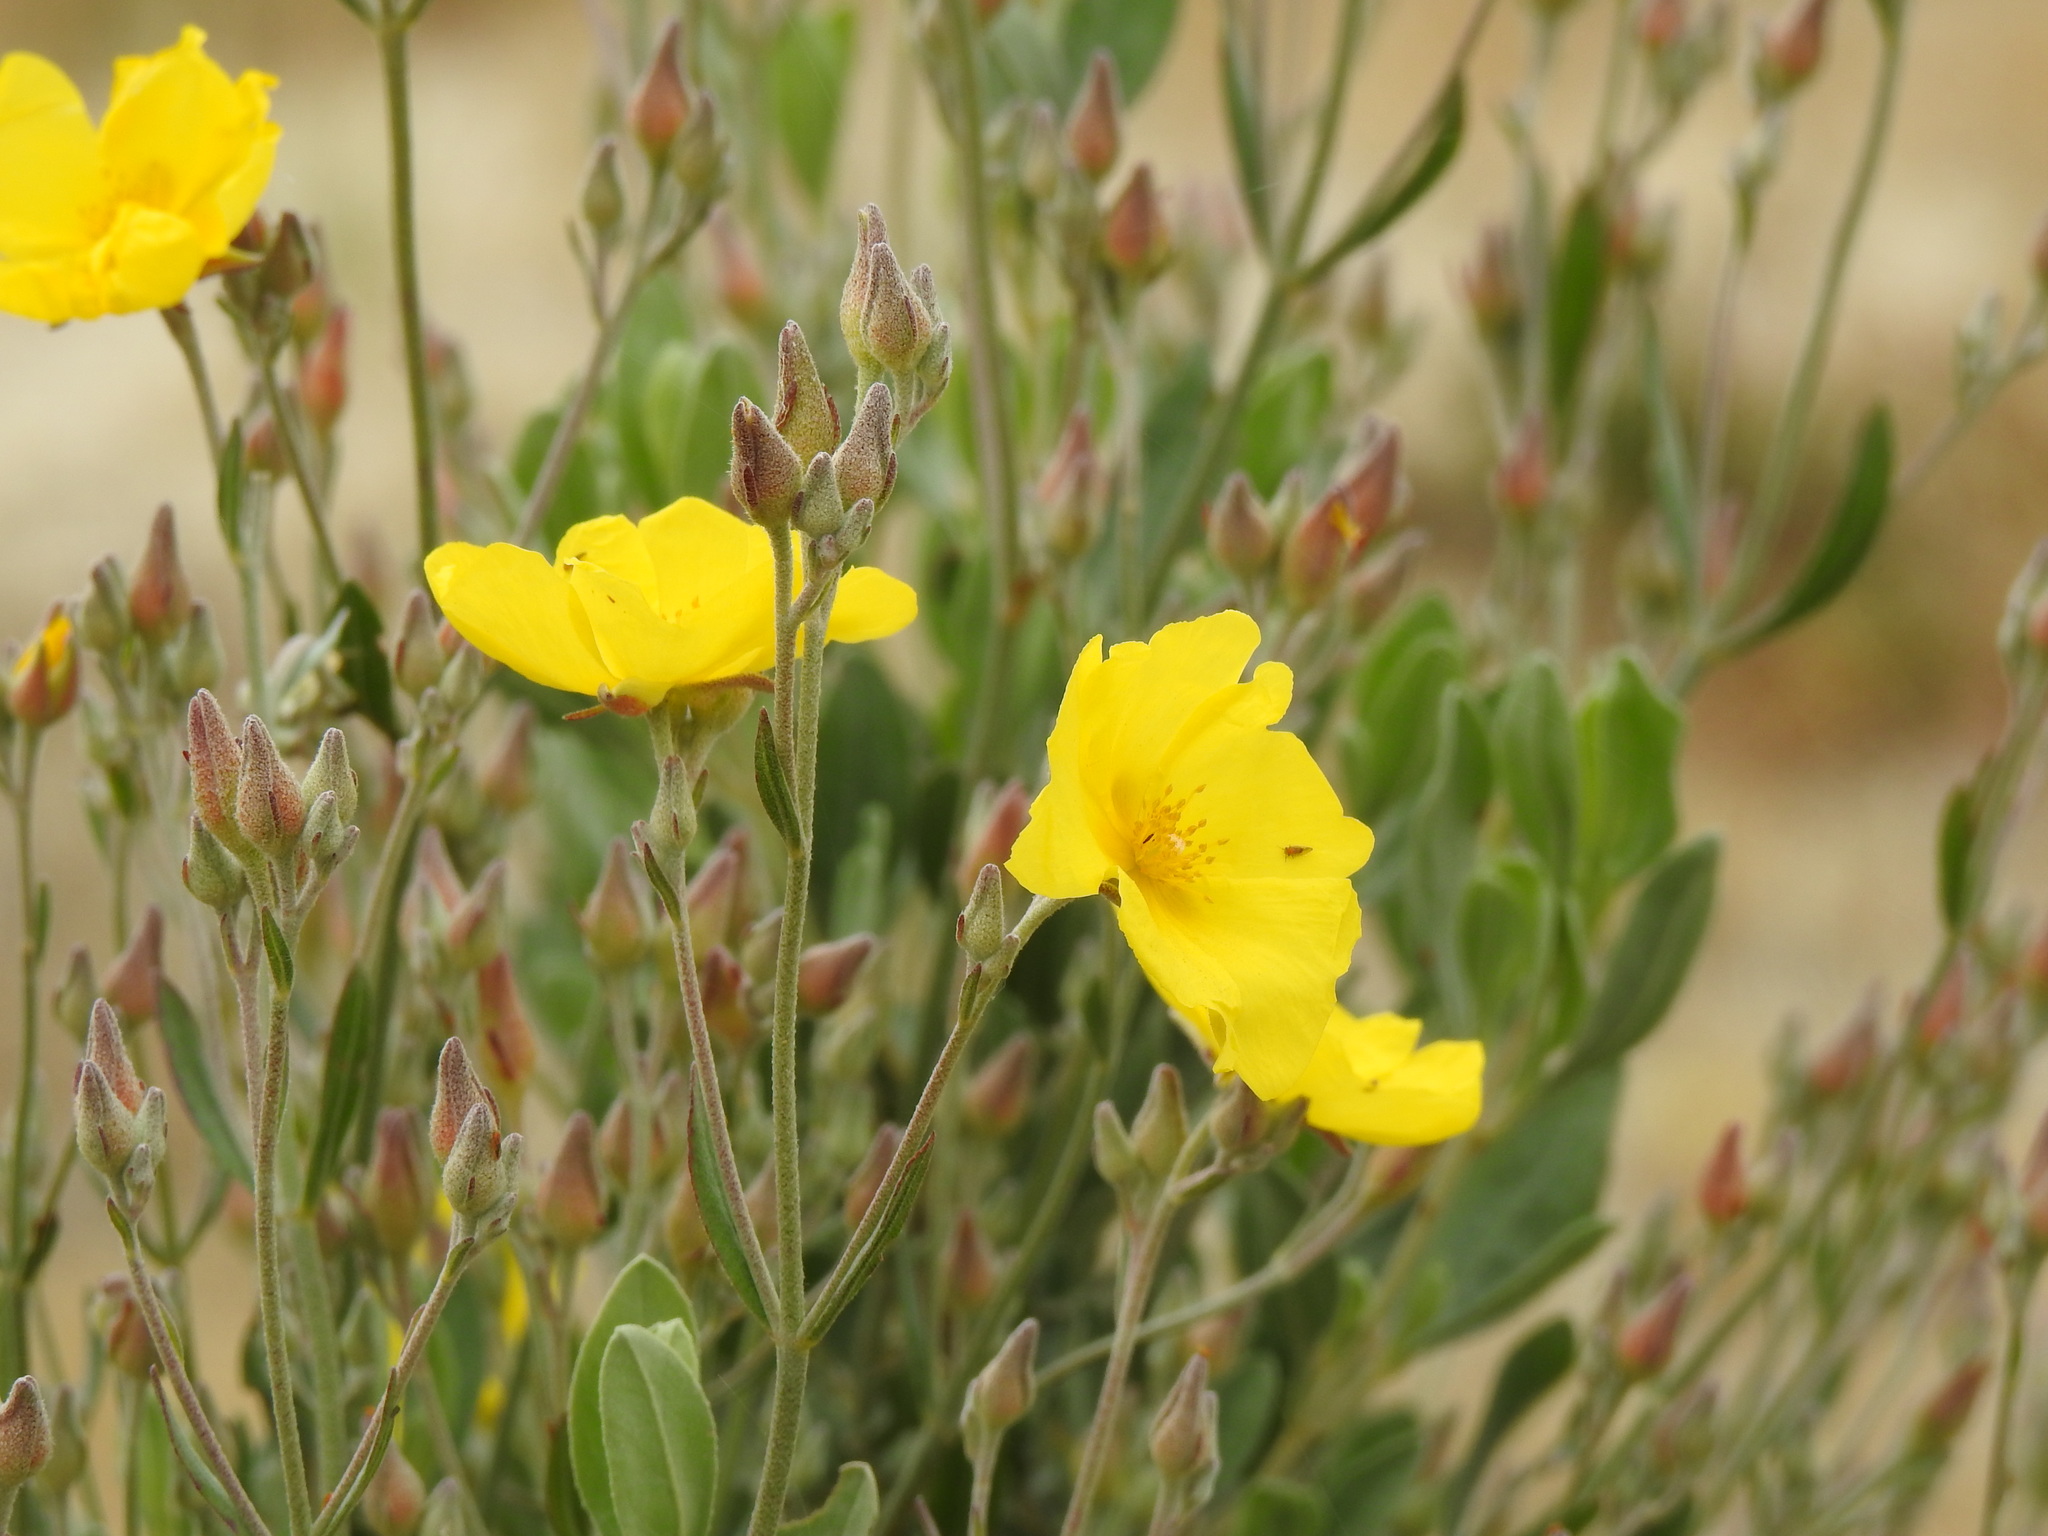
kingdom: Plantae
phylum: Tracheophyta
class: Magnoliopsida
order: Malvales
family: Cistaceae
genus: Halimium
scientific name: Halimium halimifolium
